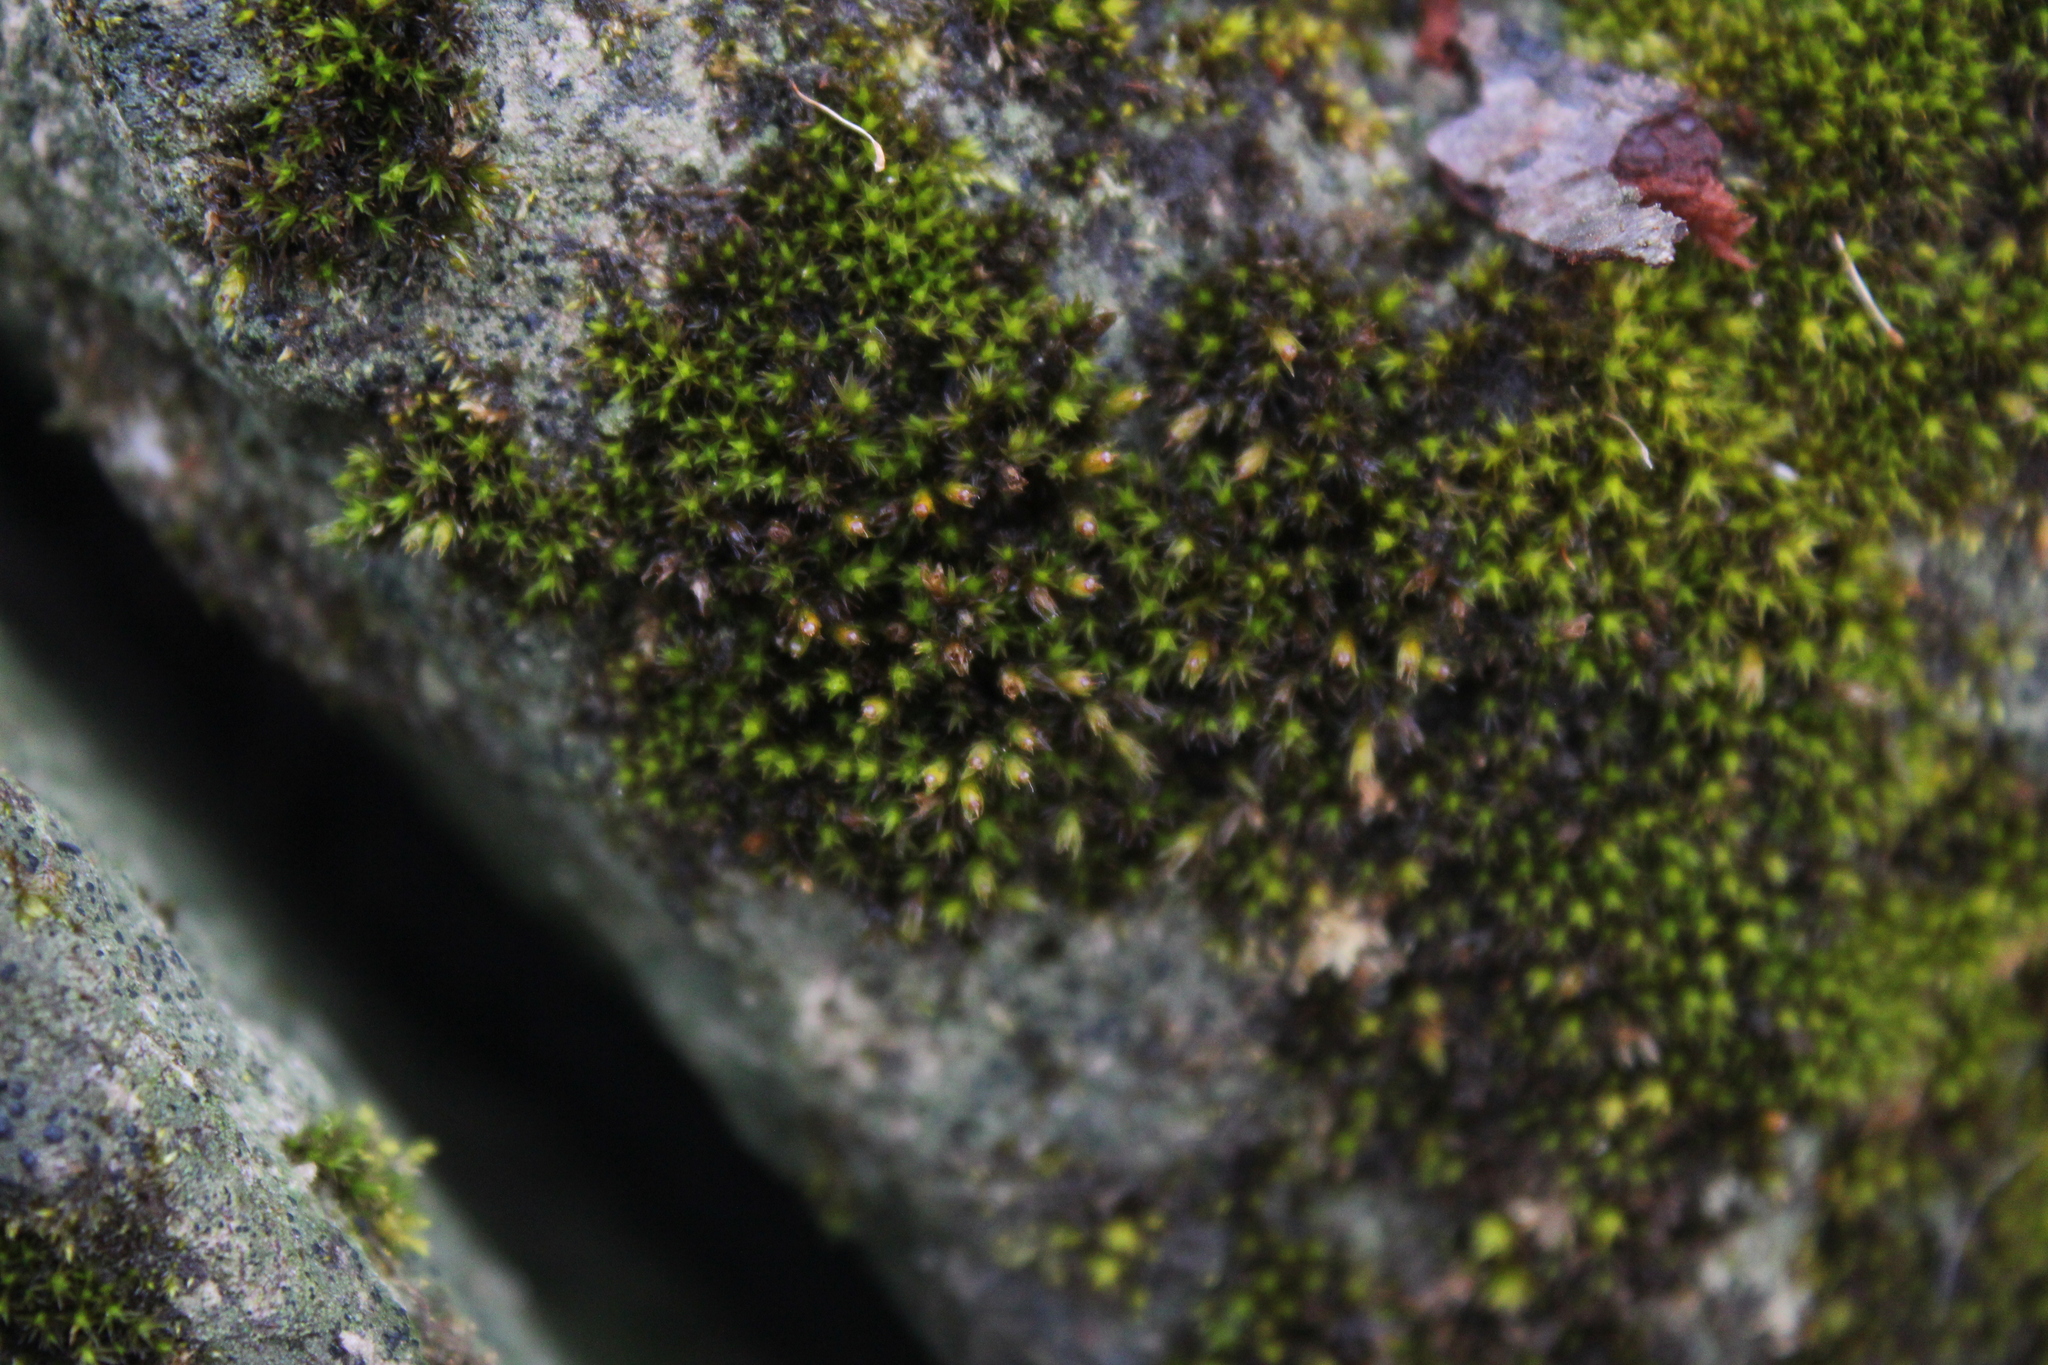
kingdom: Plantae
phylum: Bryophyta
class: Bryopsida
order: Grimmiales
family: Grimmiaceae
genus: Schistidium
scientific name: Schistidium apocarpum
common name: Radiate bloom moss
